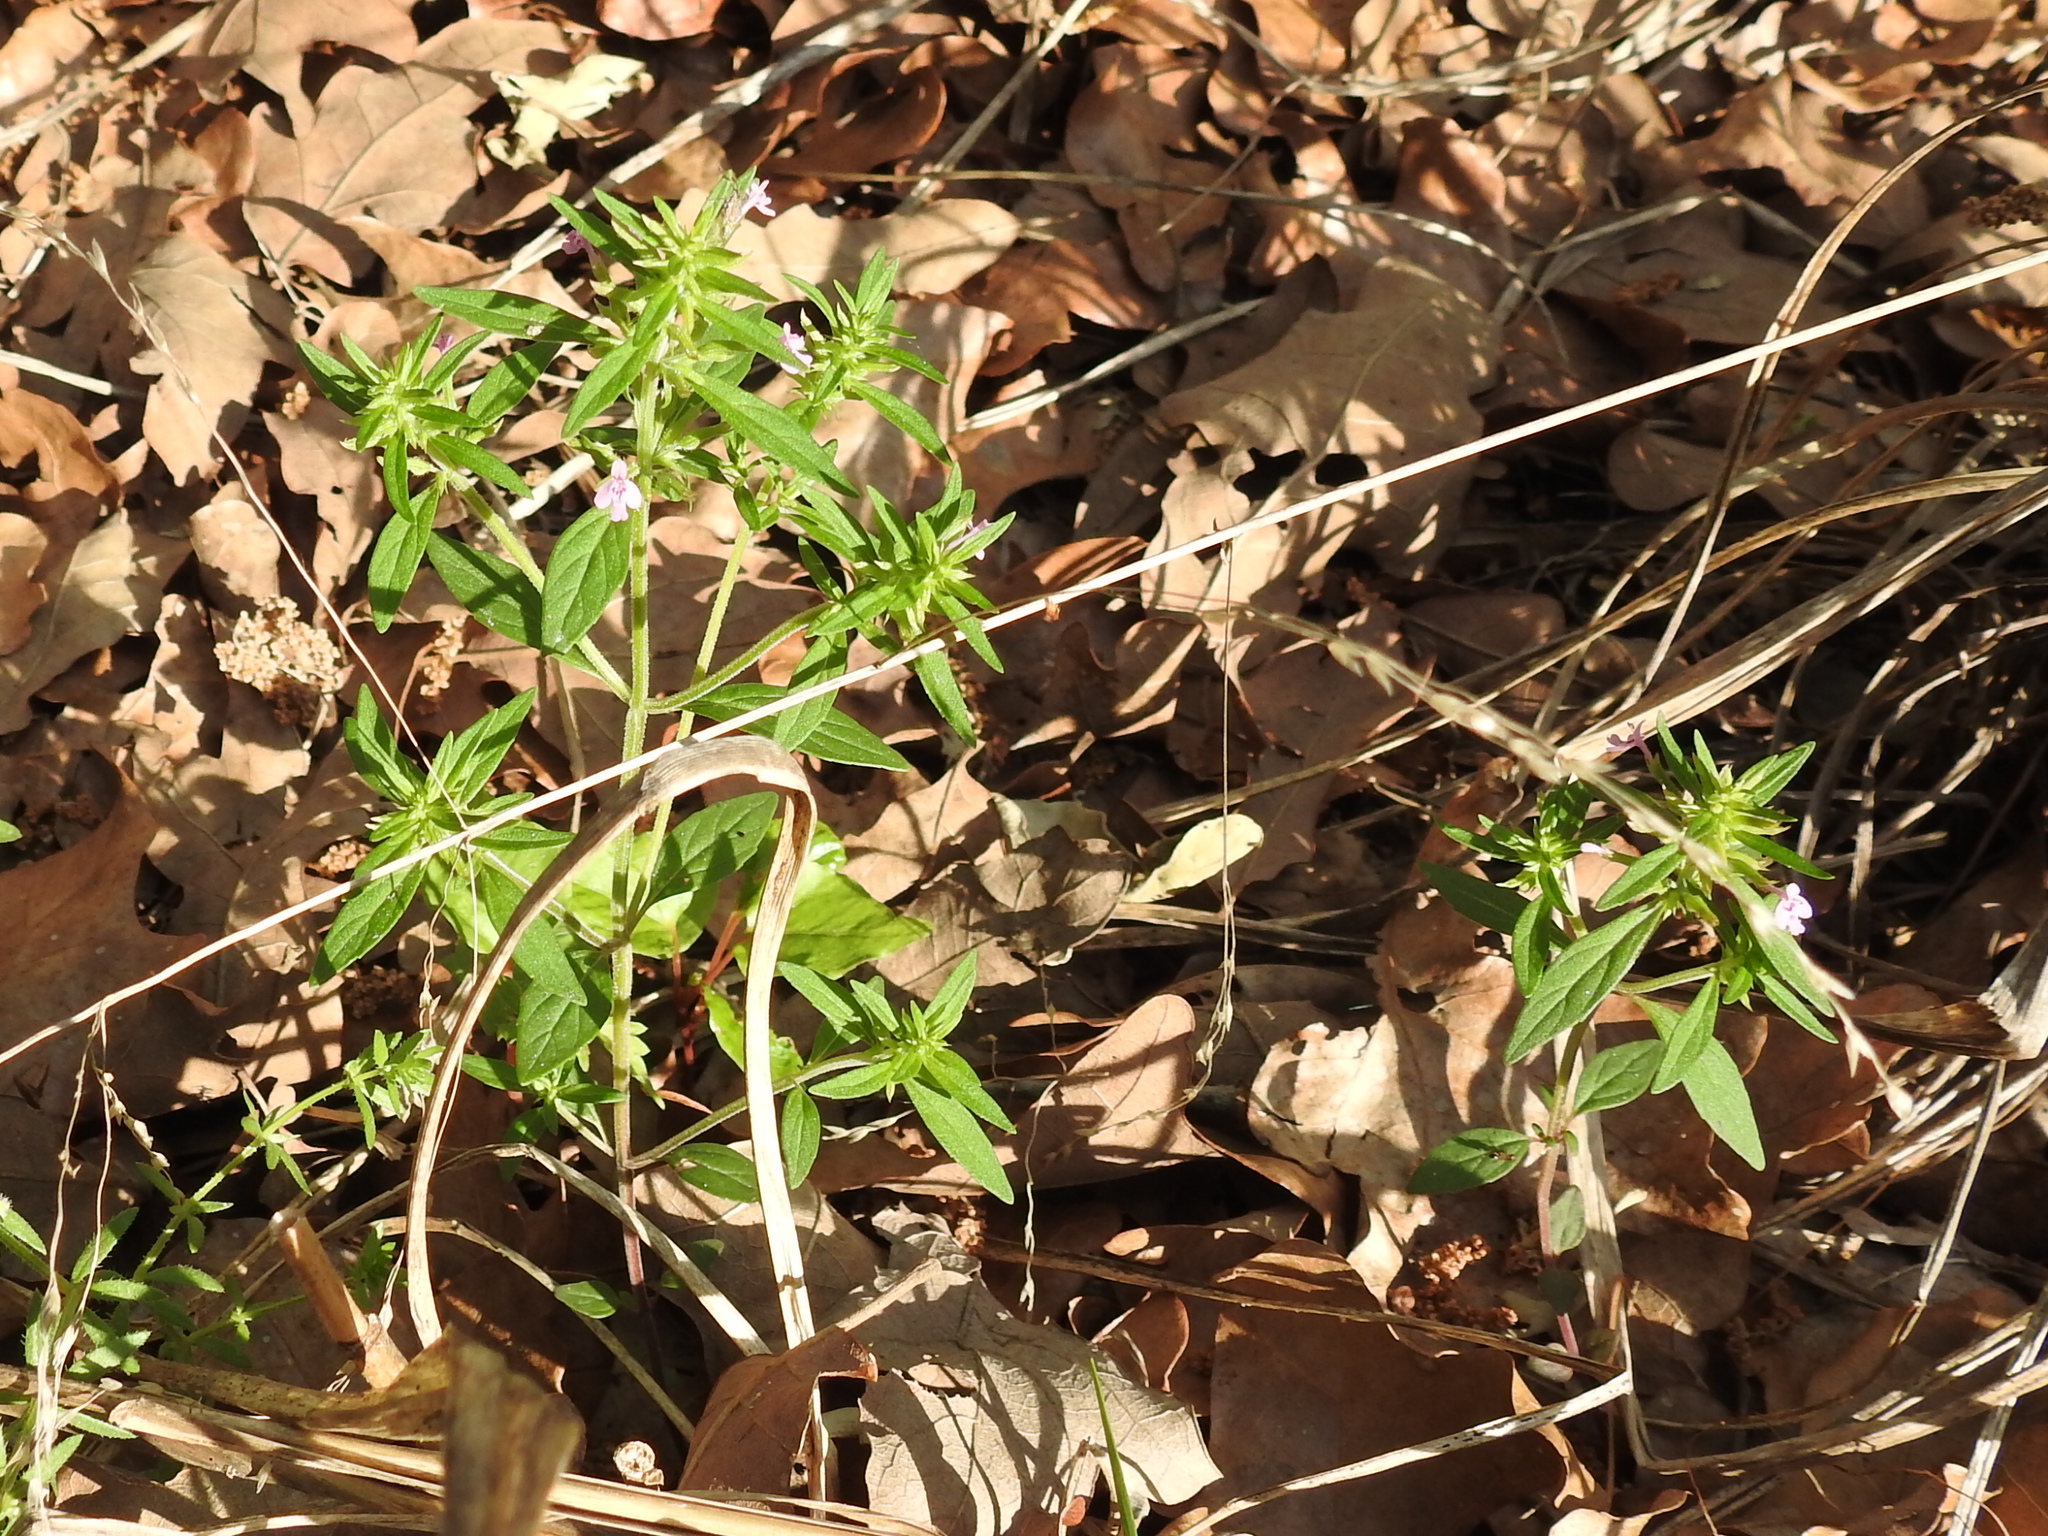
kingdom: Plantae
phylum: Tracheophyta
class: Magnoliopsida
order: Lamiales
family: Lamiaceae
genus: Hedeoma
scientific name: Hedeoma acinoides
